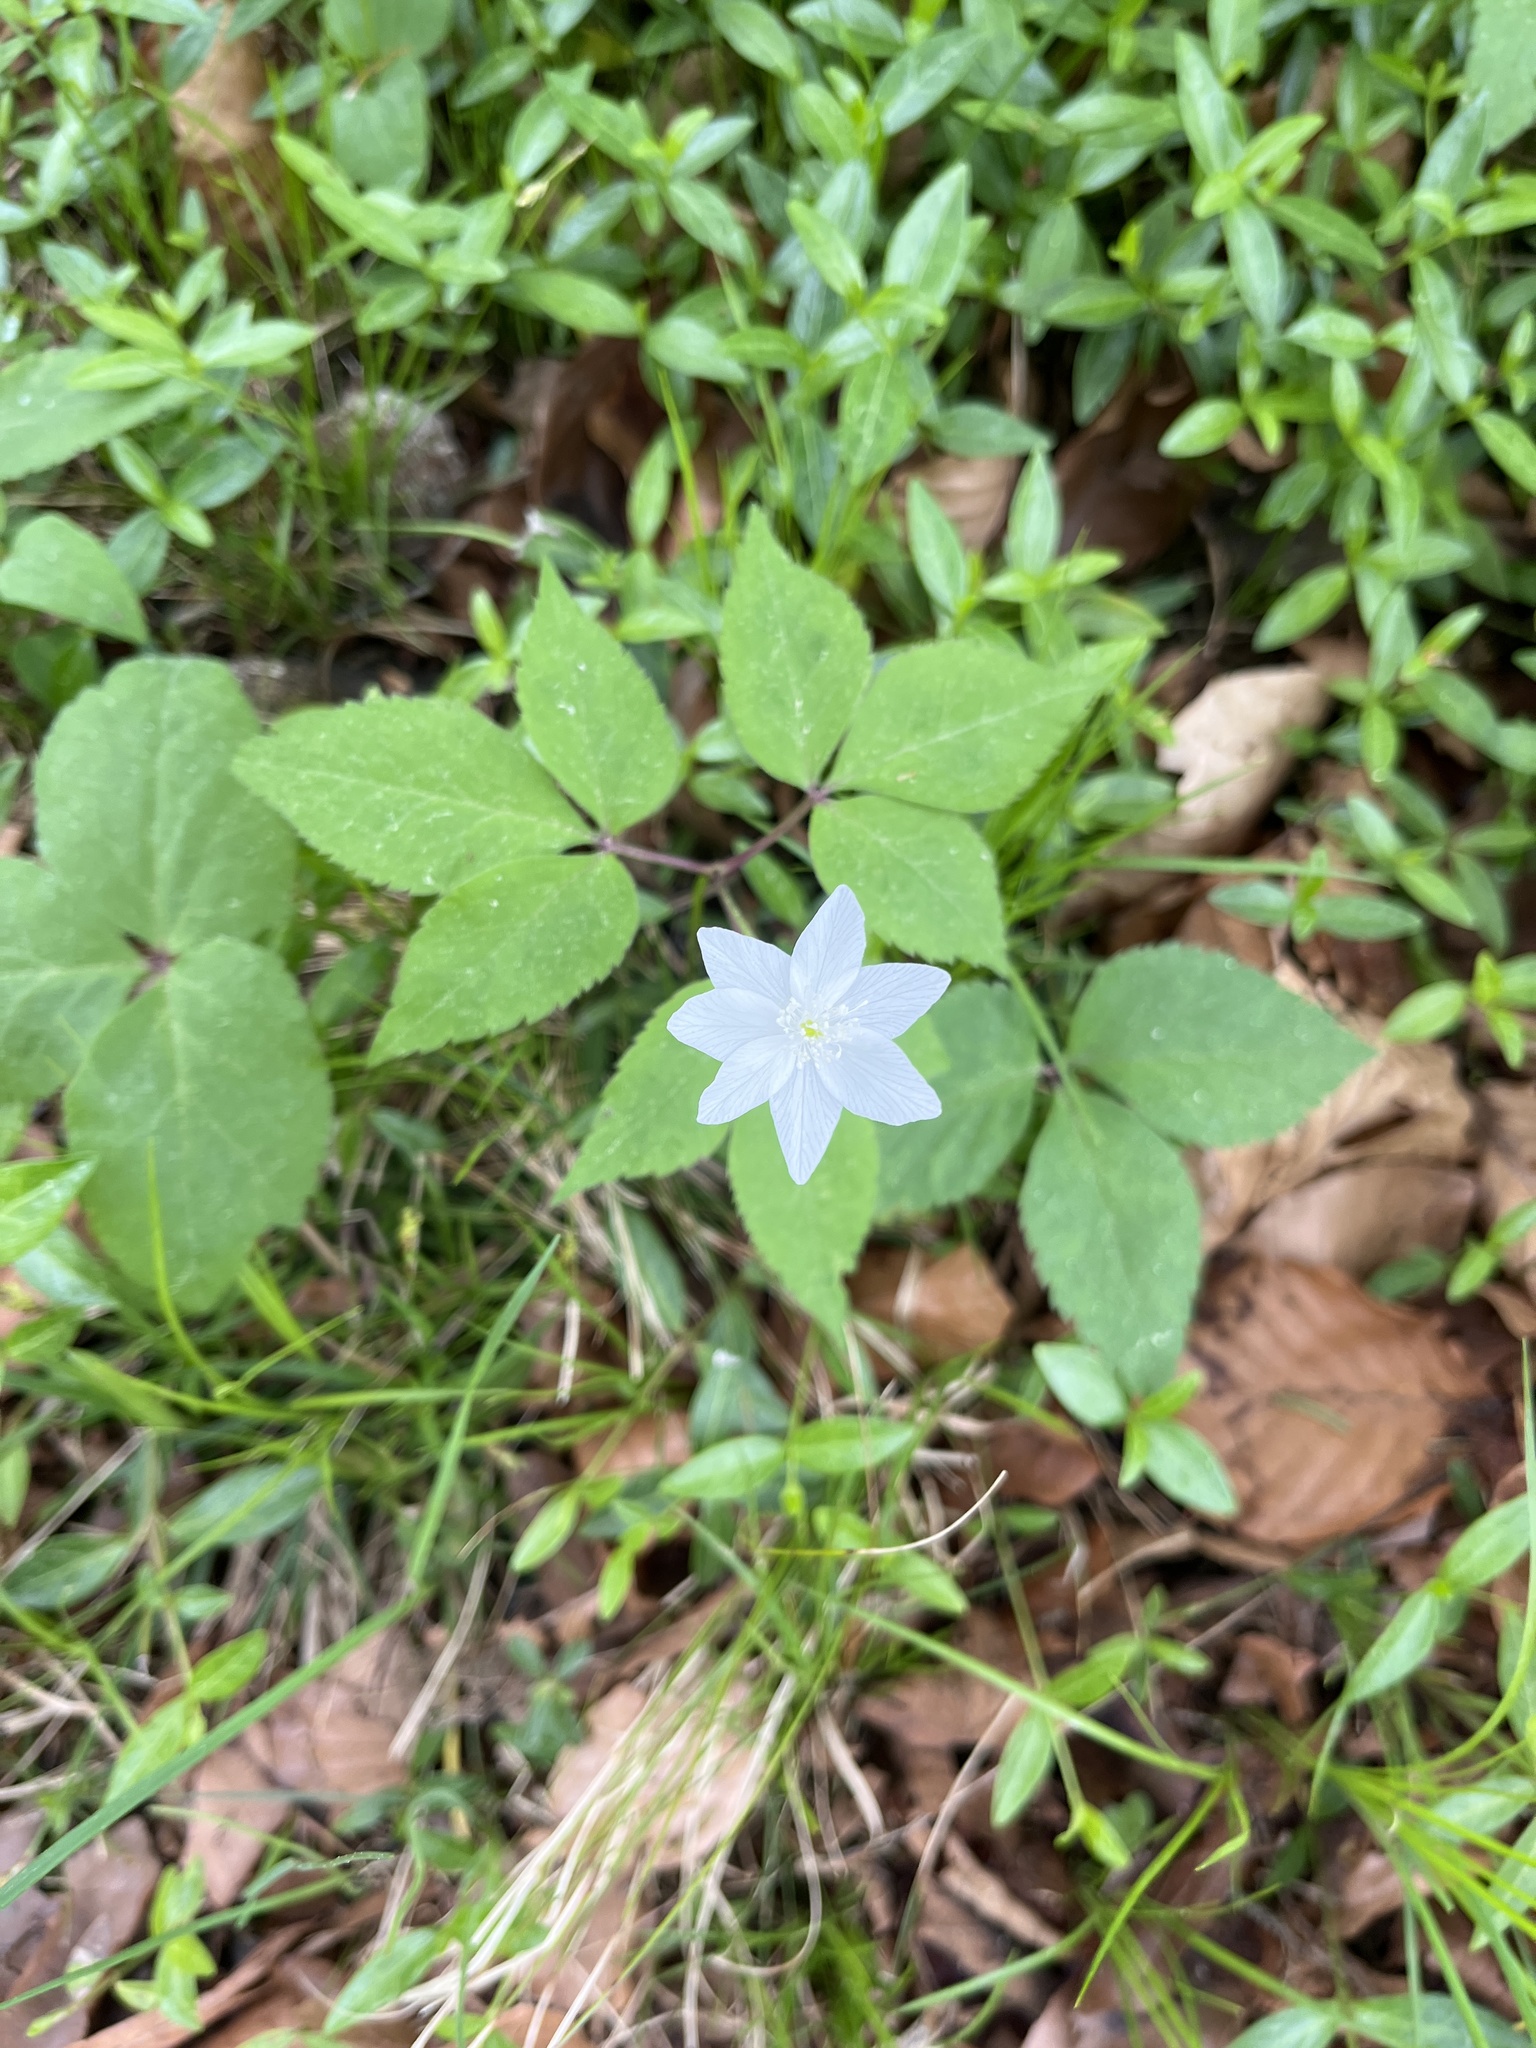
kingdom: Plantae
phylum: Tracheophyta
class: Magnoliopsida
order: Ranunculales
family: Ranunculaceae
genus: Anemone
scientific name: Anemone trifolia
